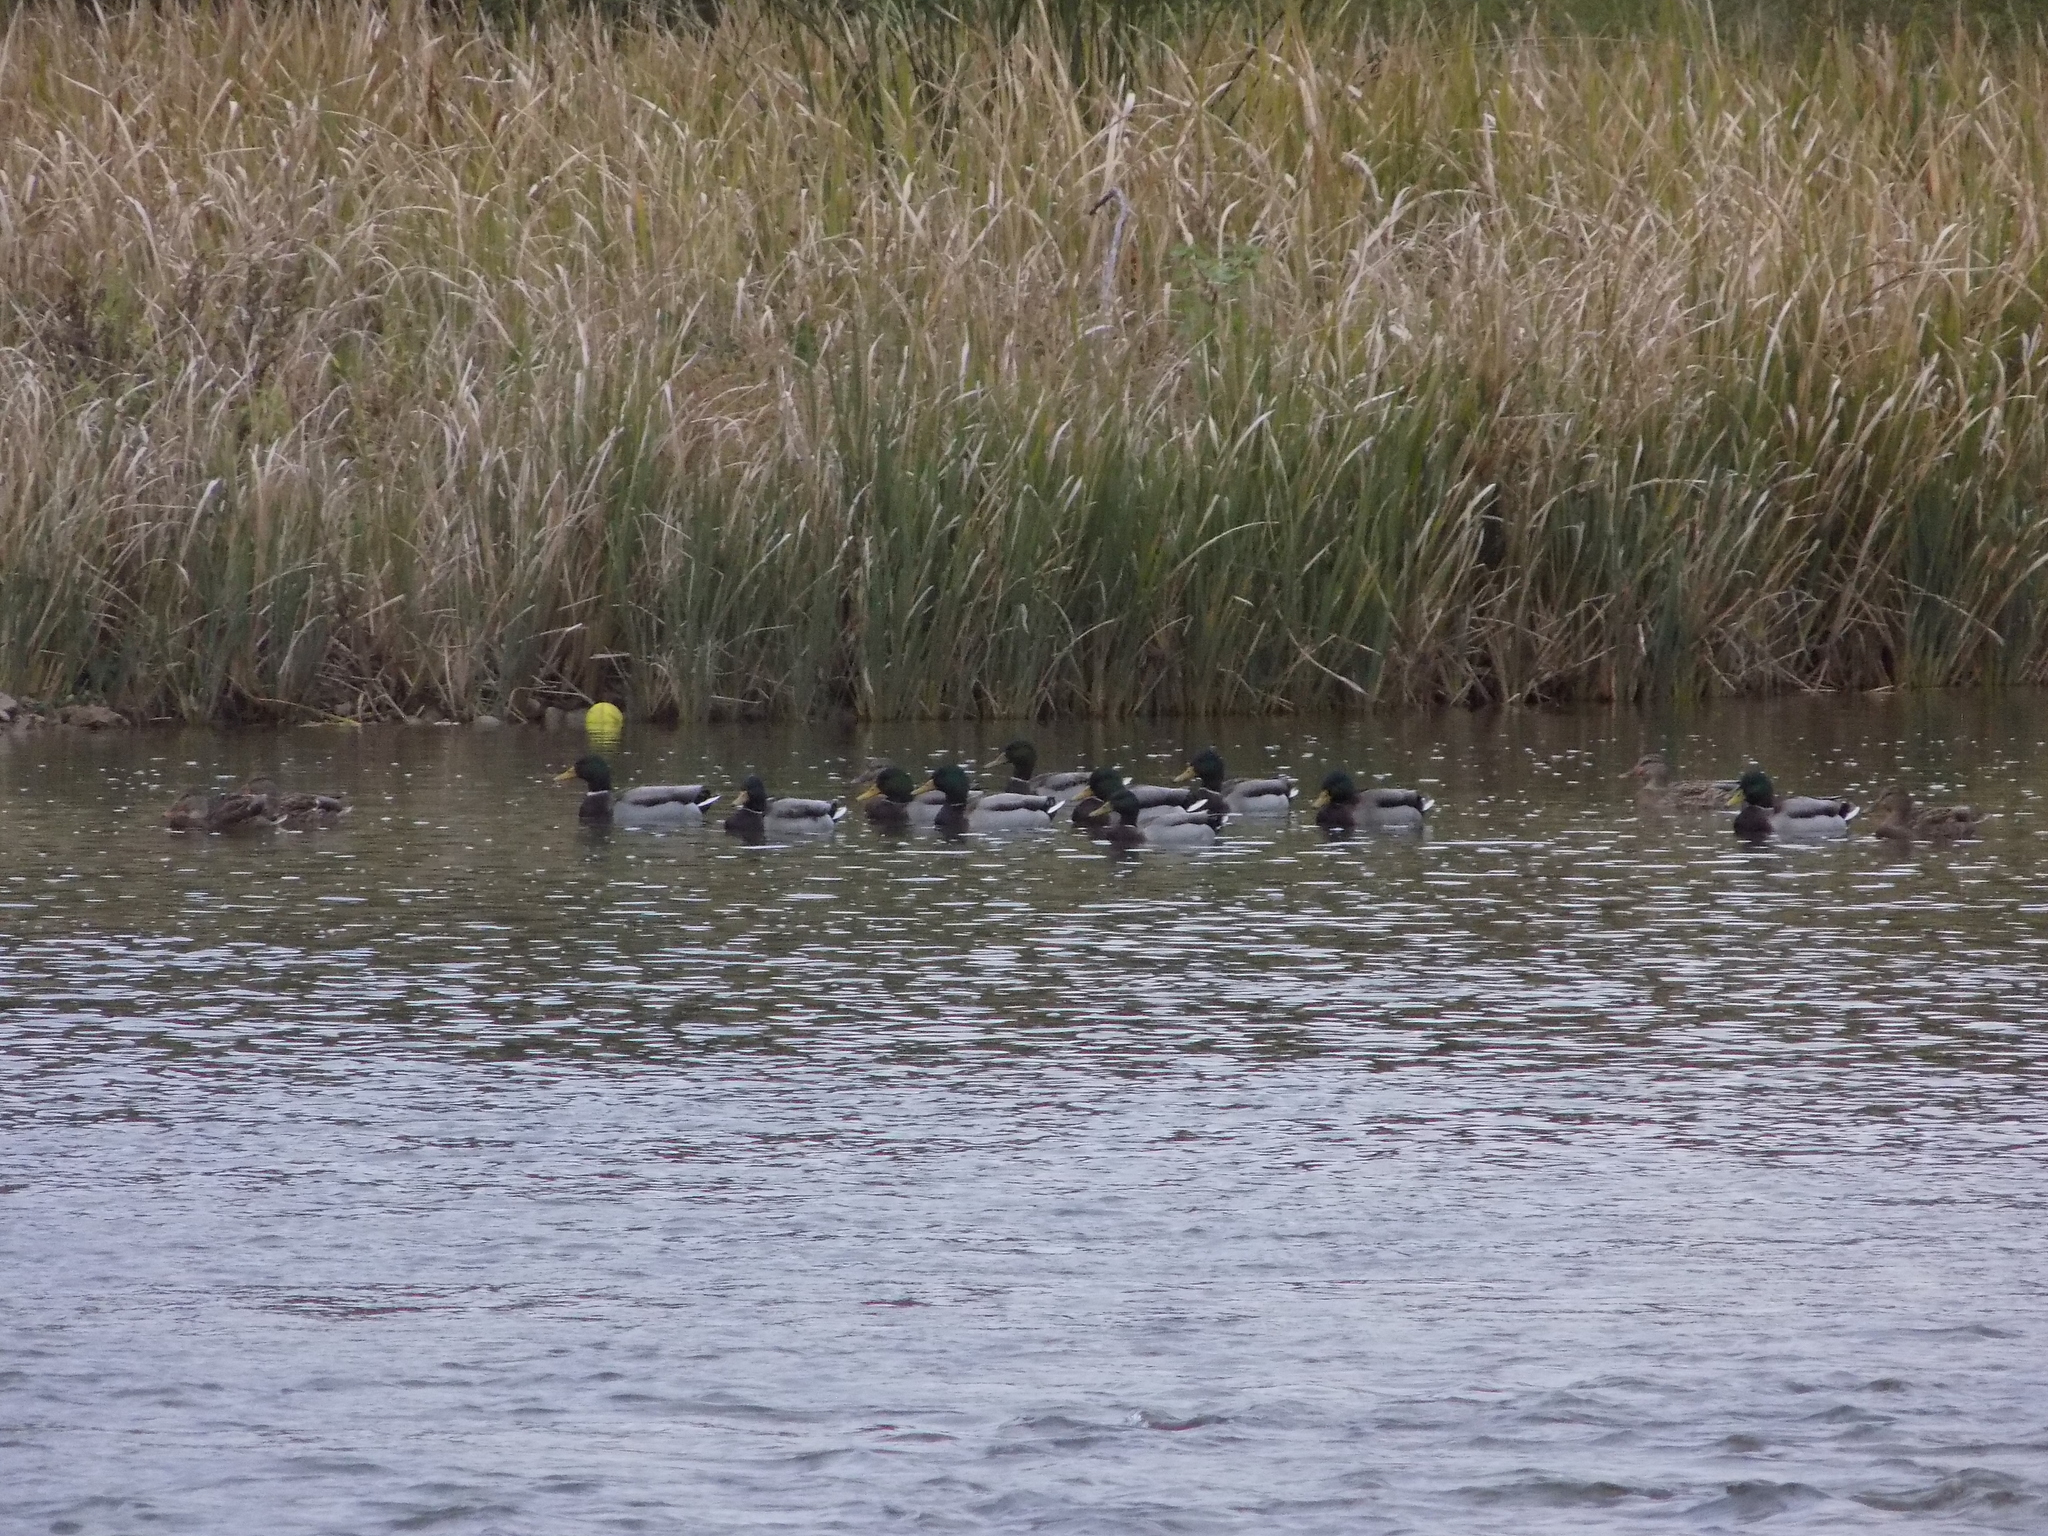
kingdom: Animalia
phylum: Chordata
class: Aves
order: Anseriformes
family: Anatidae
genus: Anas
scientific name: Anas platyrhynchos
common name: Mallard
